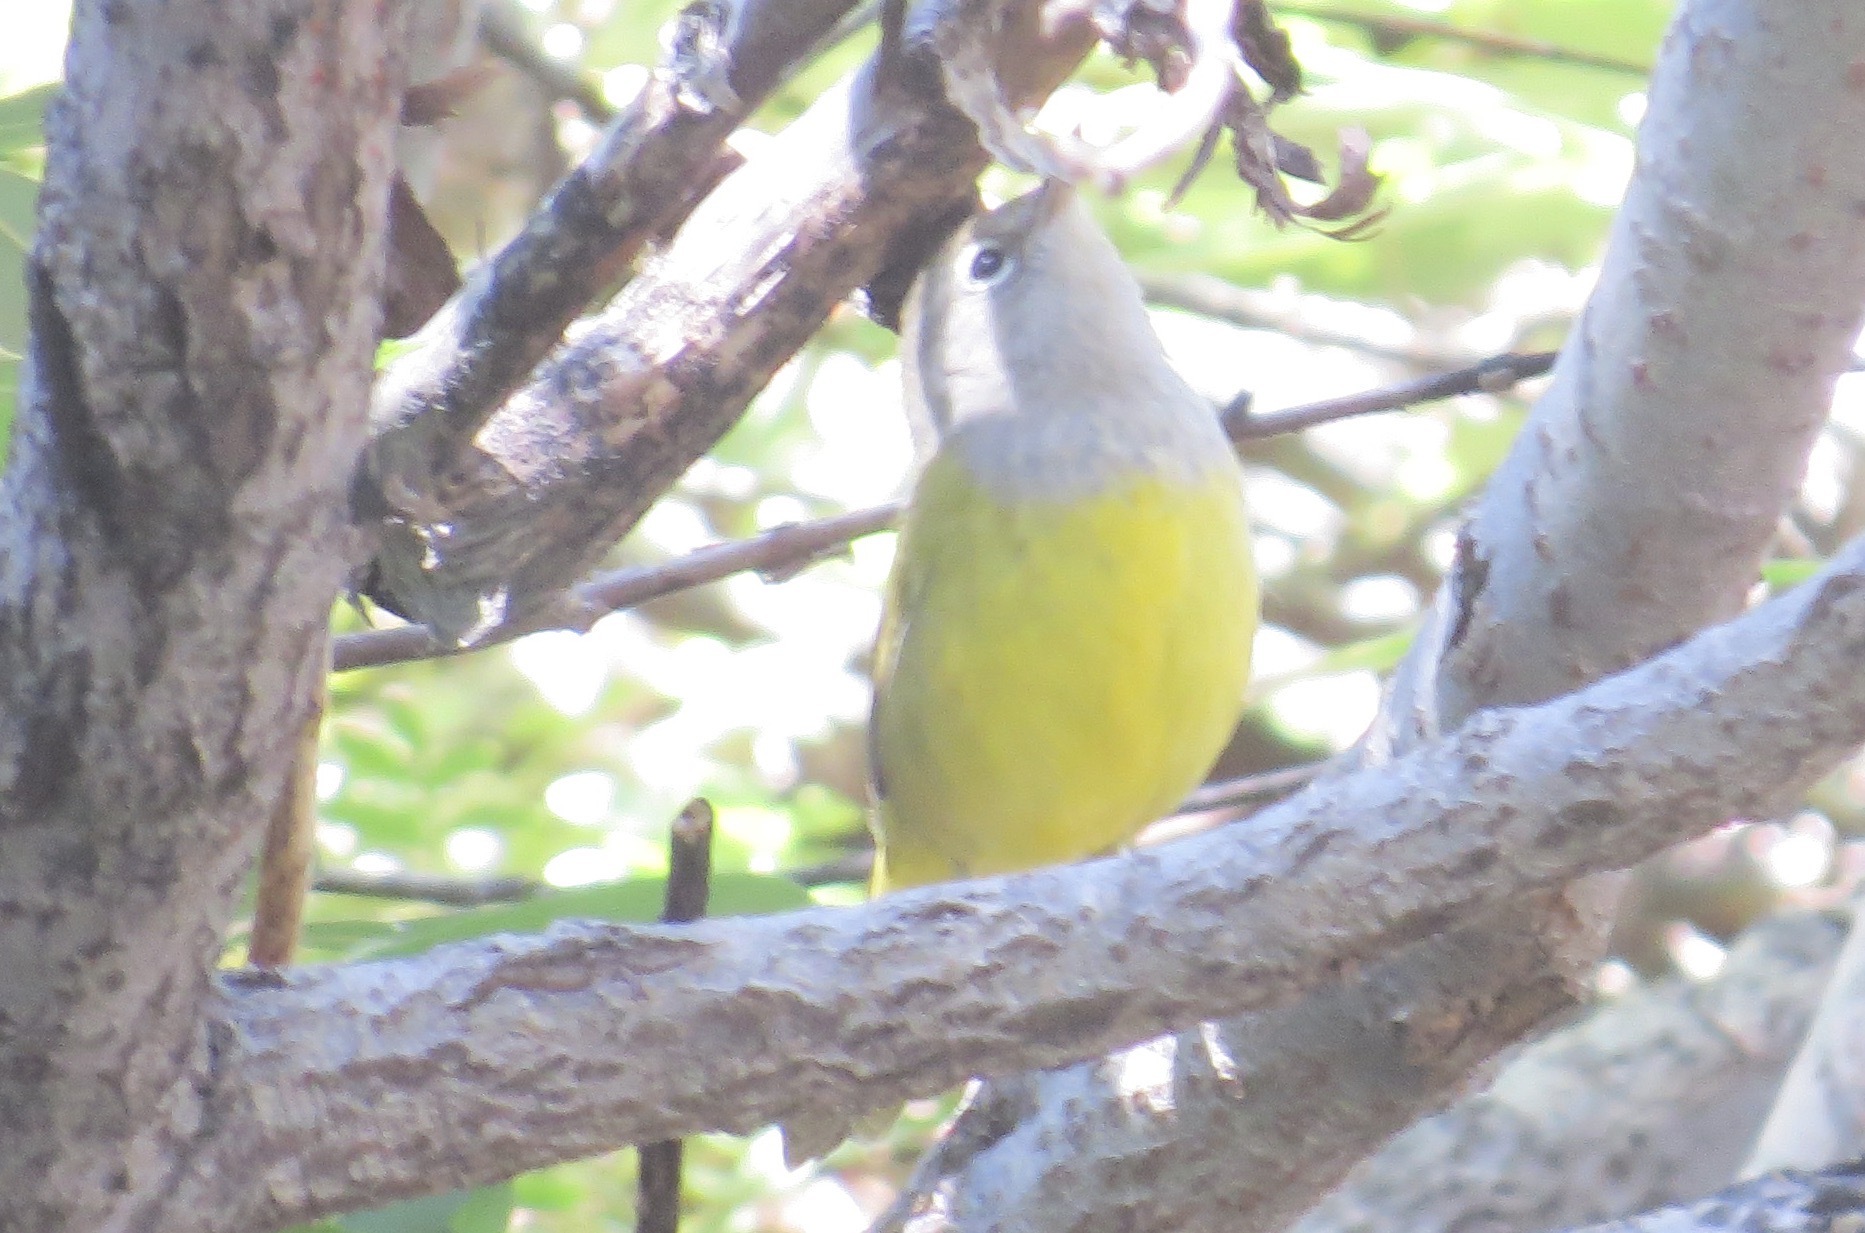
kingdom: Animalia
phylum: Chordata
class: Aves
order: Passeriformes
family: Parulidae
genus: Geothlypis
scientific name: Geothlypis tolmiei
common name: Macgillivray's warbler
